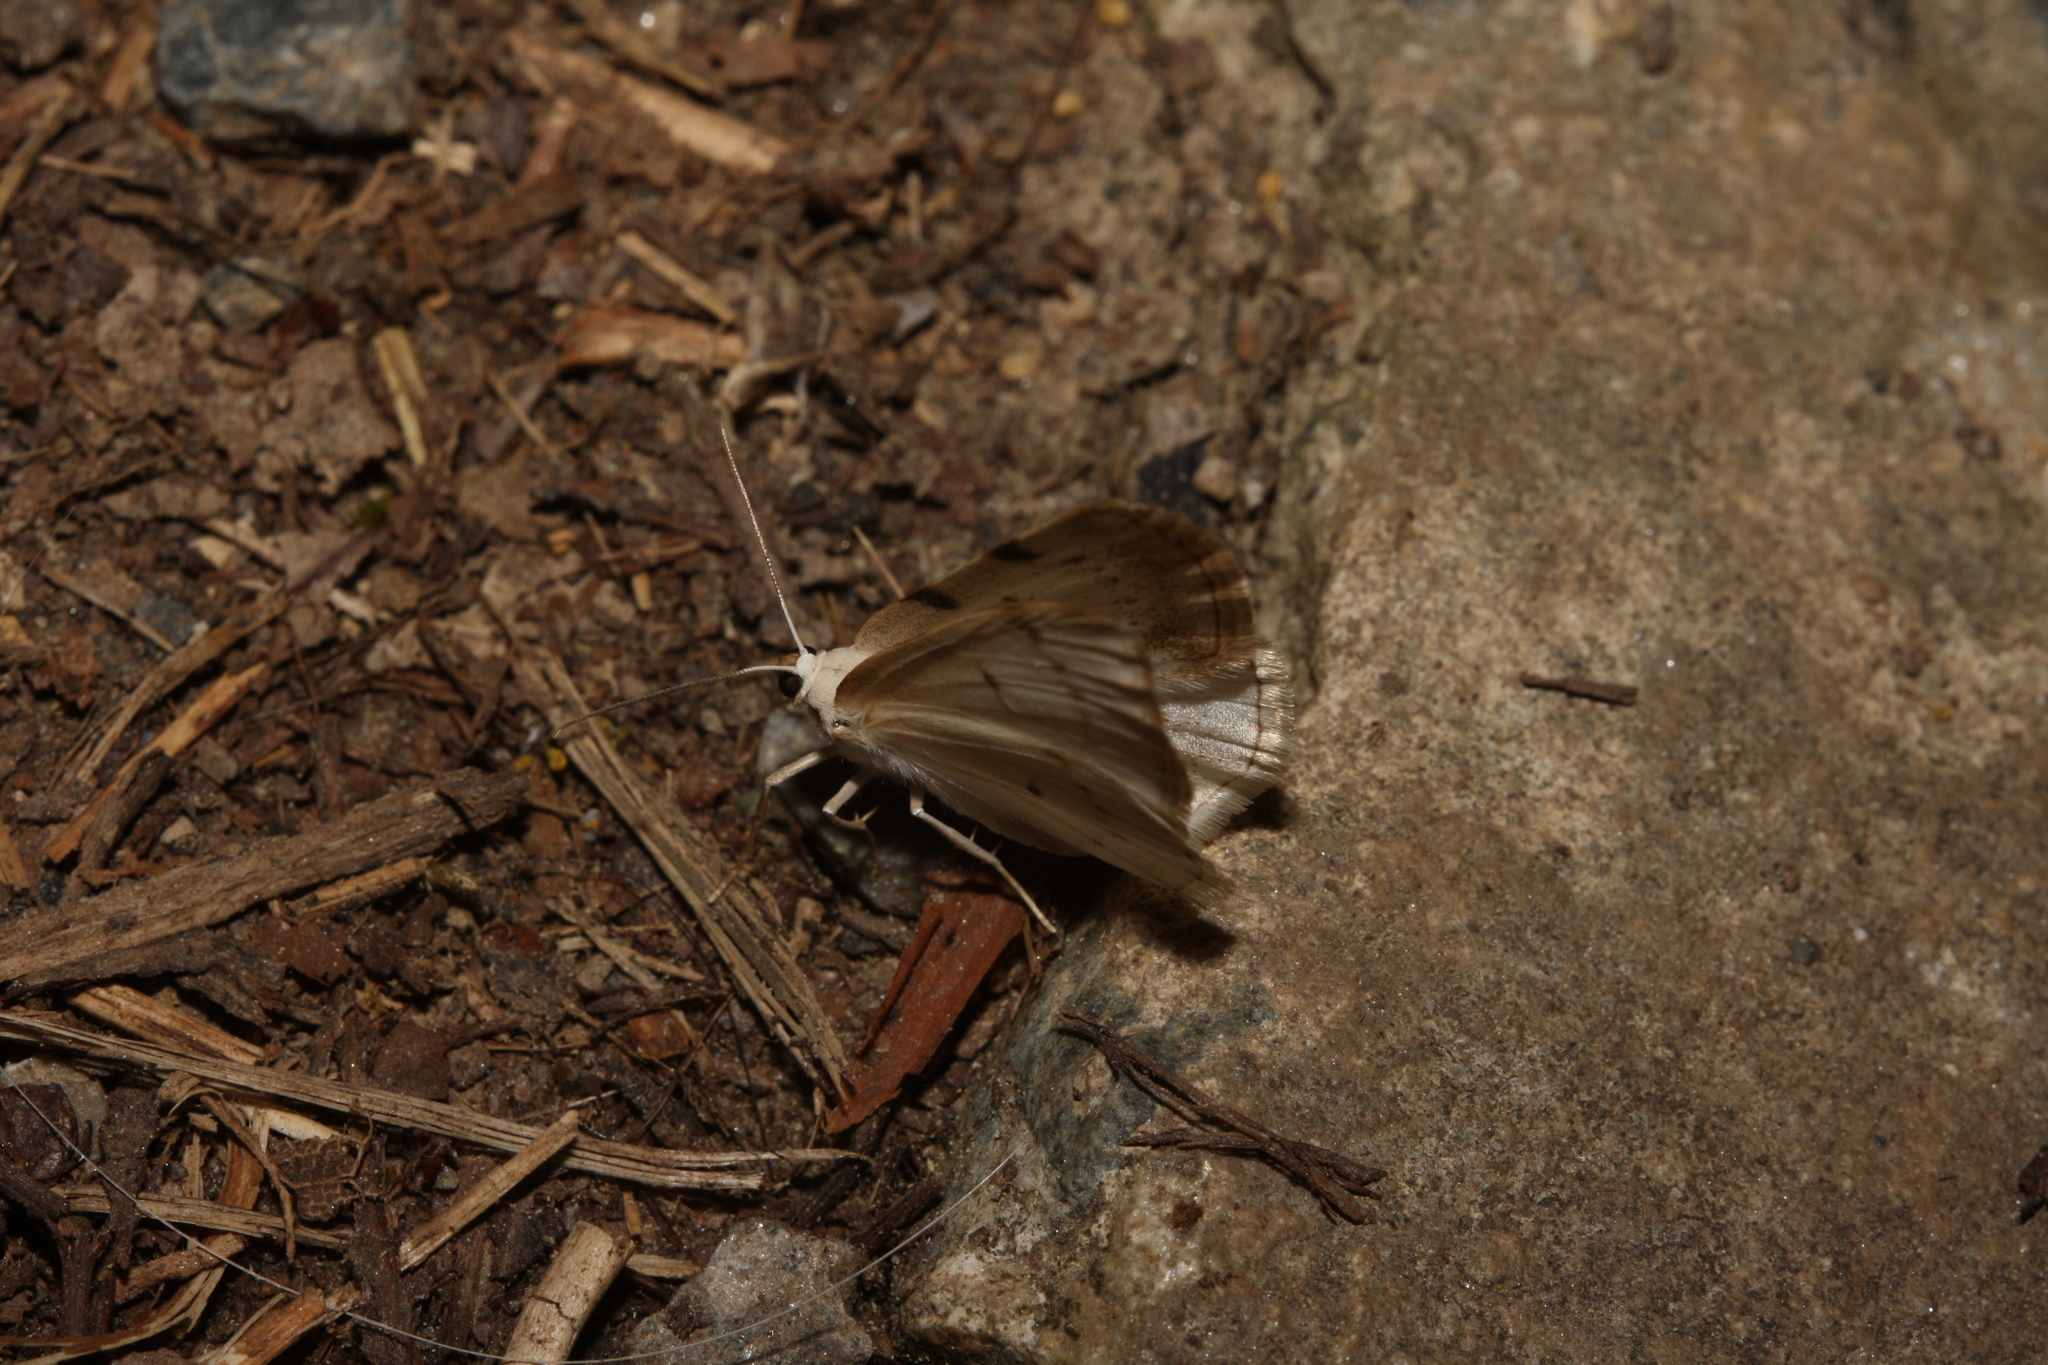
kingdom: Animalia
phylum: Arthropoda
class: Insecta
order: Lepidoptera
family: Geometridae
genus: Lomographa
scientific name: Lomographa bimaculata
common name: White-pinion spotted
